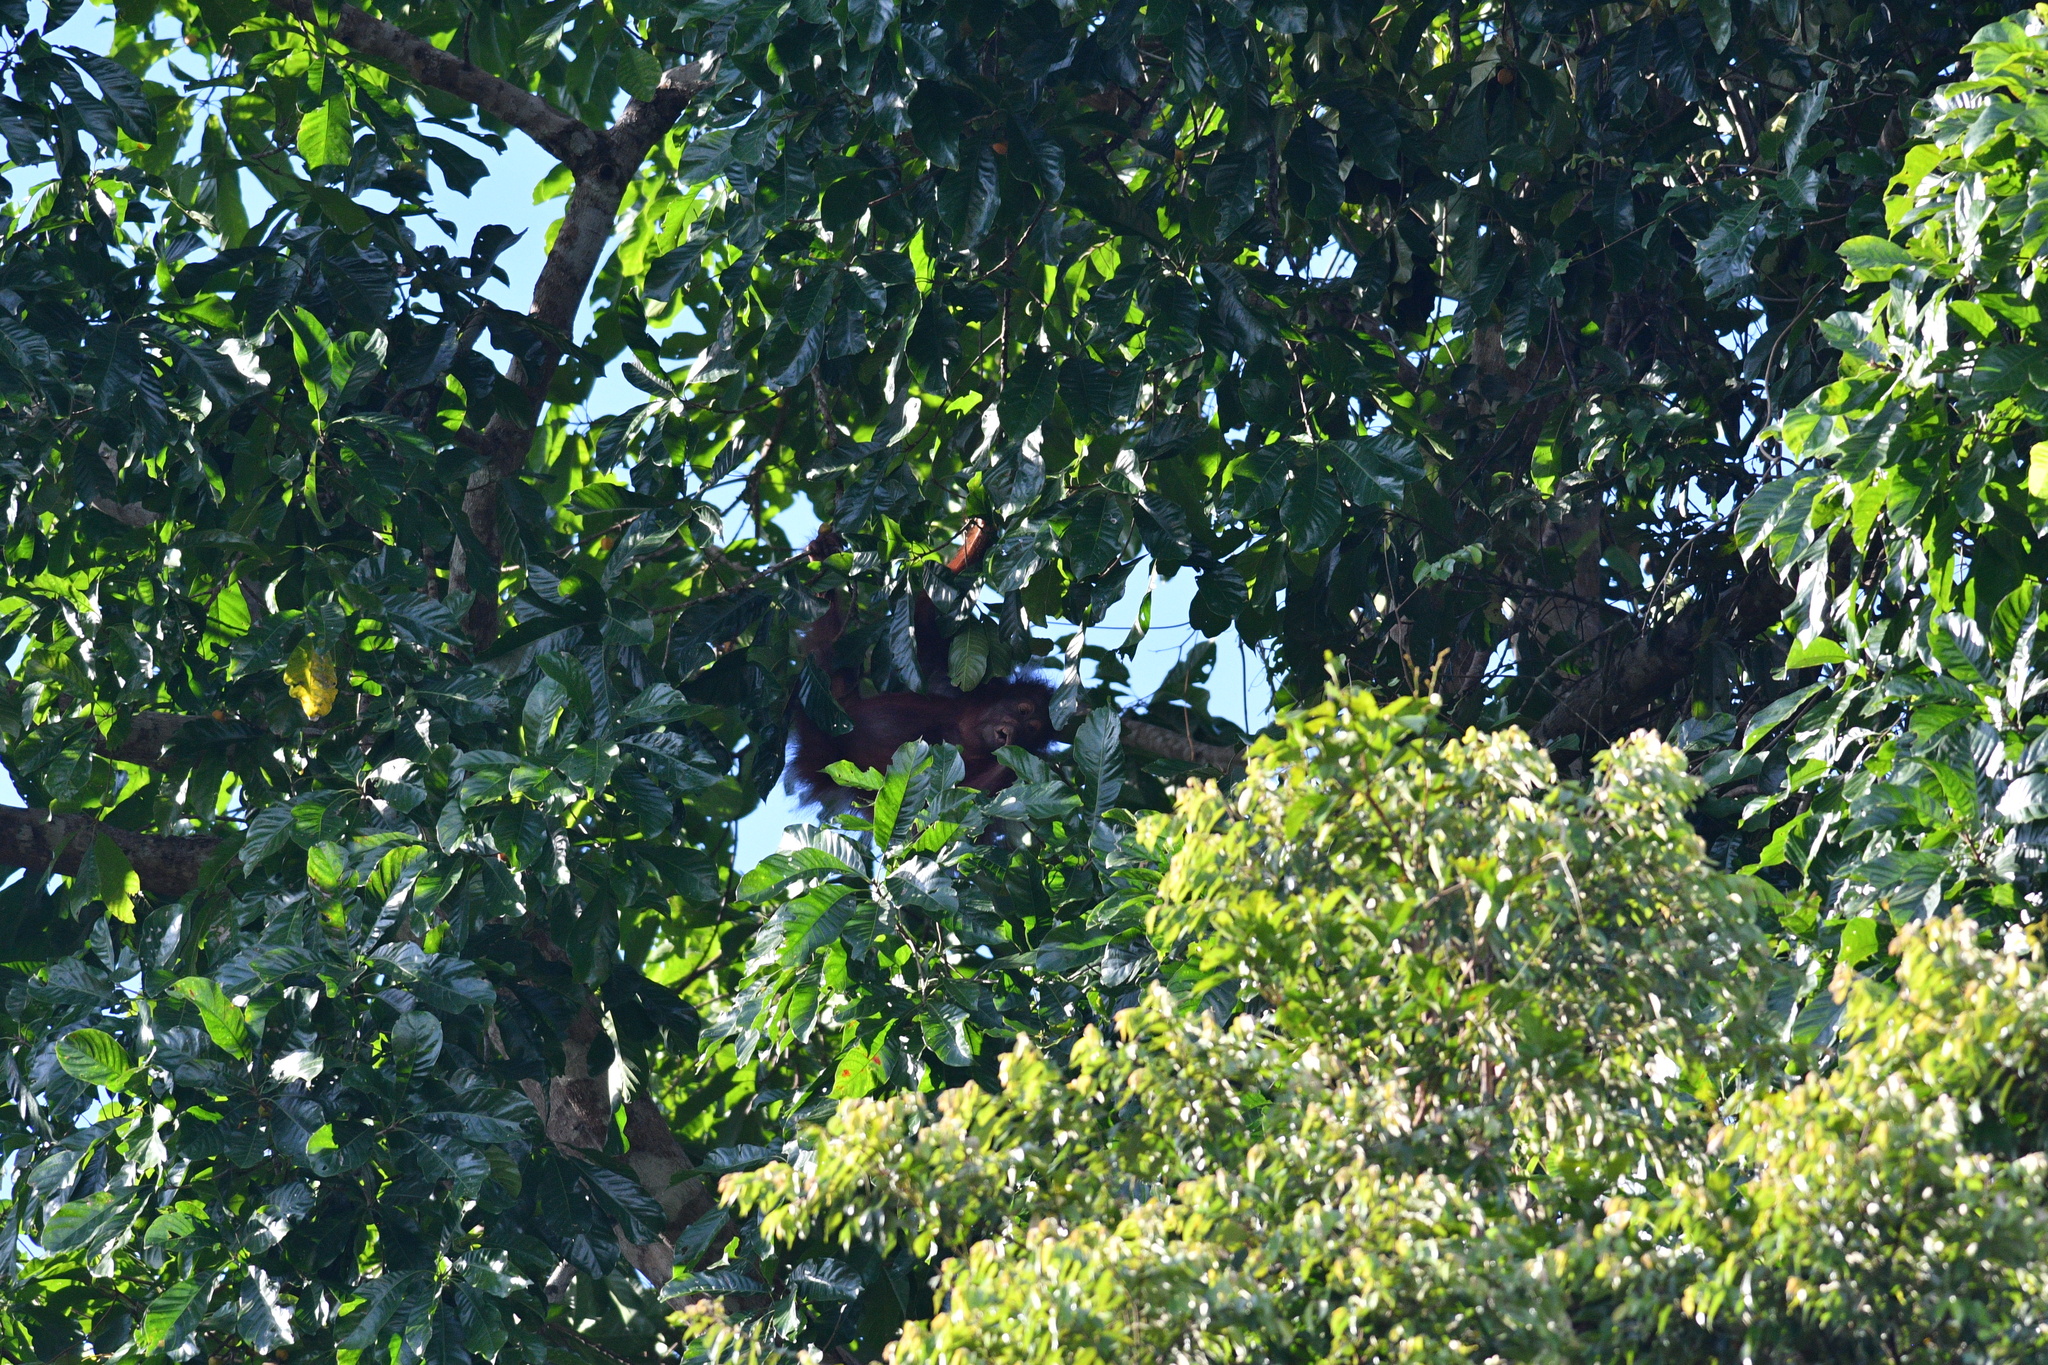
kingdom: Animalia
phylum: Chordata
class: Mammalia
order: Primates
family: Hominidae
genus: Pongo
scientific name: Pongo pygmaeus
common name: Bornean orangutan
